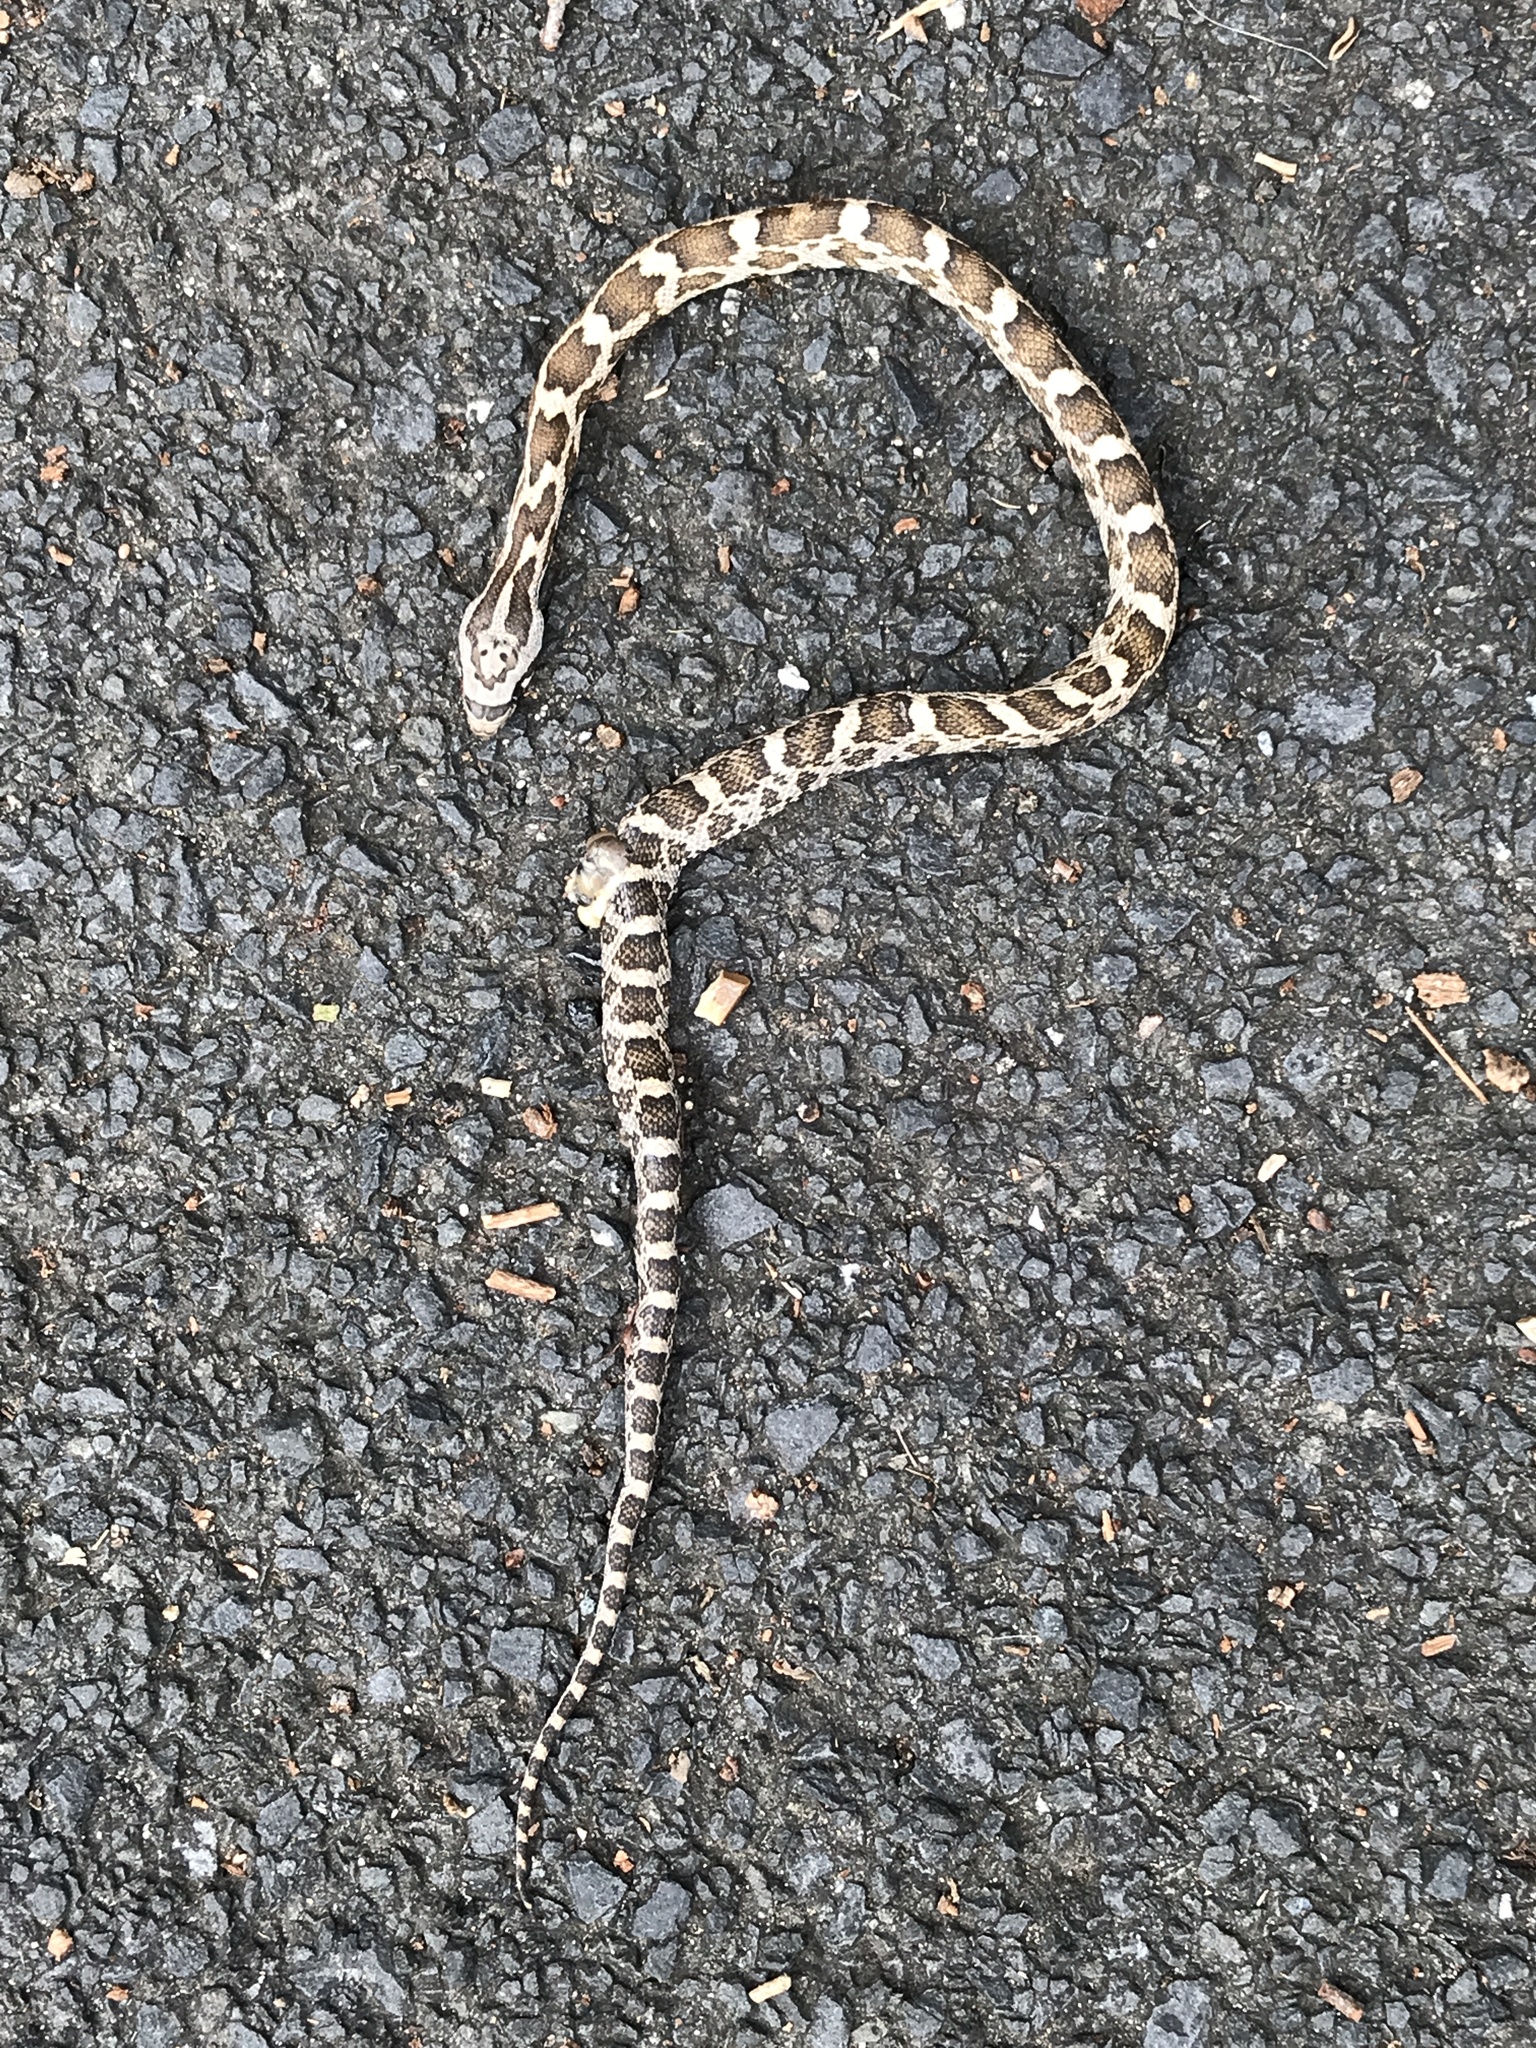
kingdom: Animalia
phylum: Chordata
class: Squamata
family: Colubridae
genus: Pantherophis
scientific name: Pantherophis obsoletus
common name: Black rat snake
